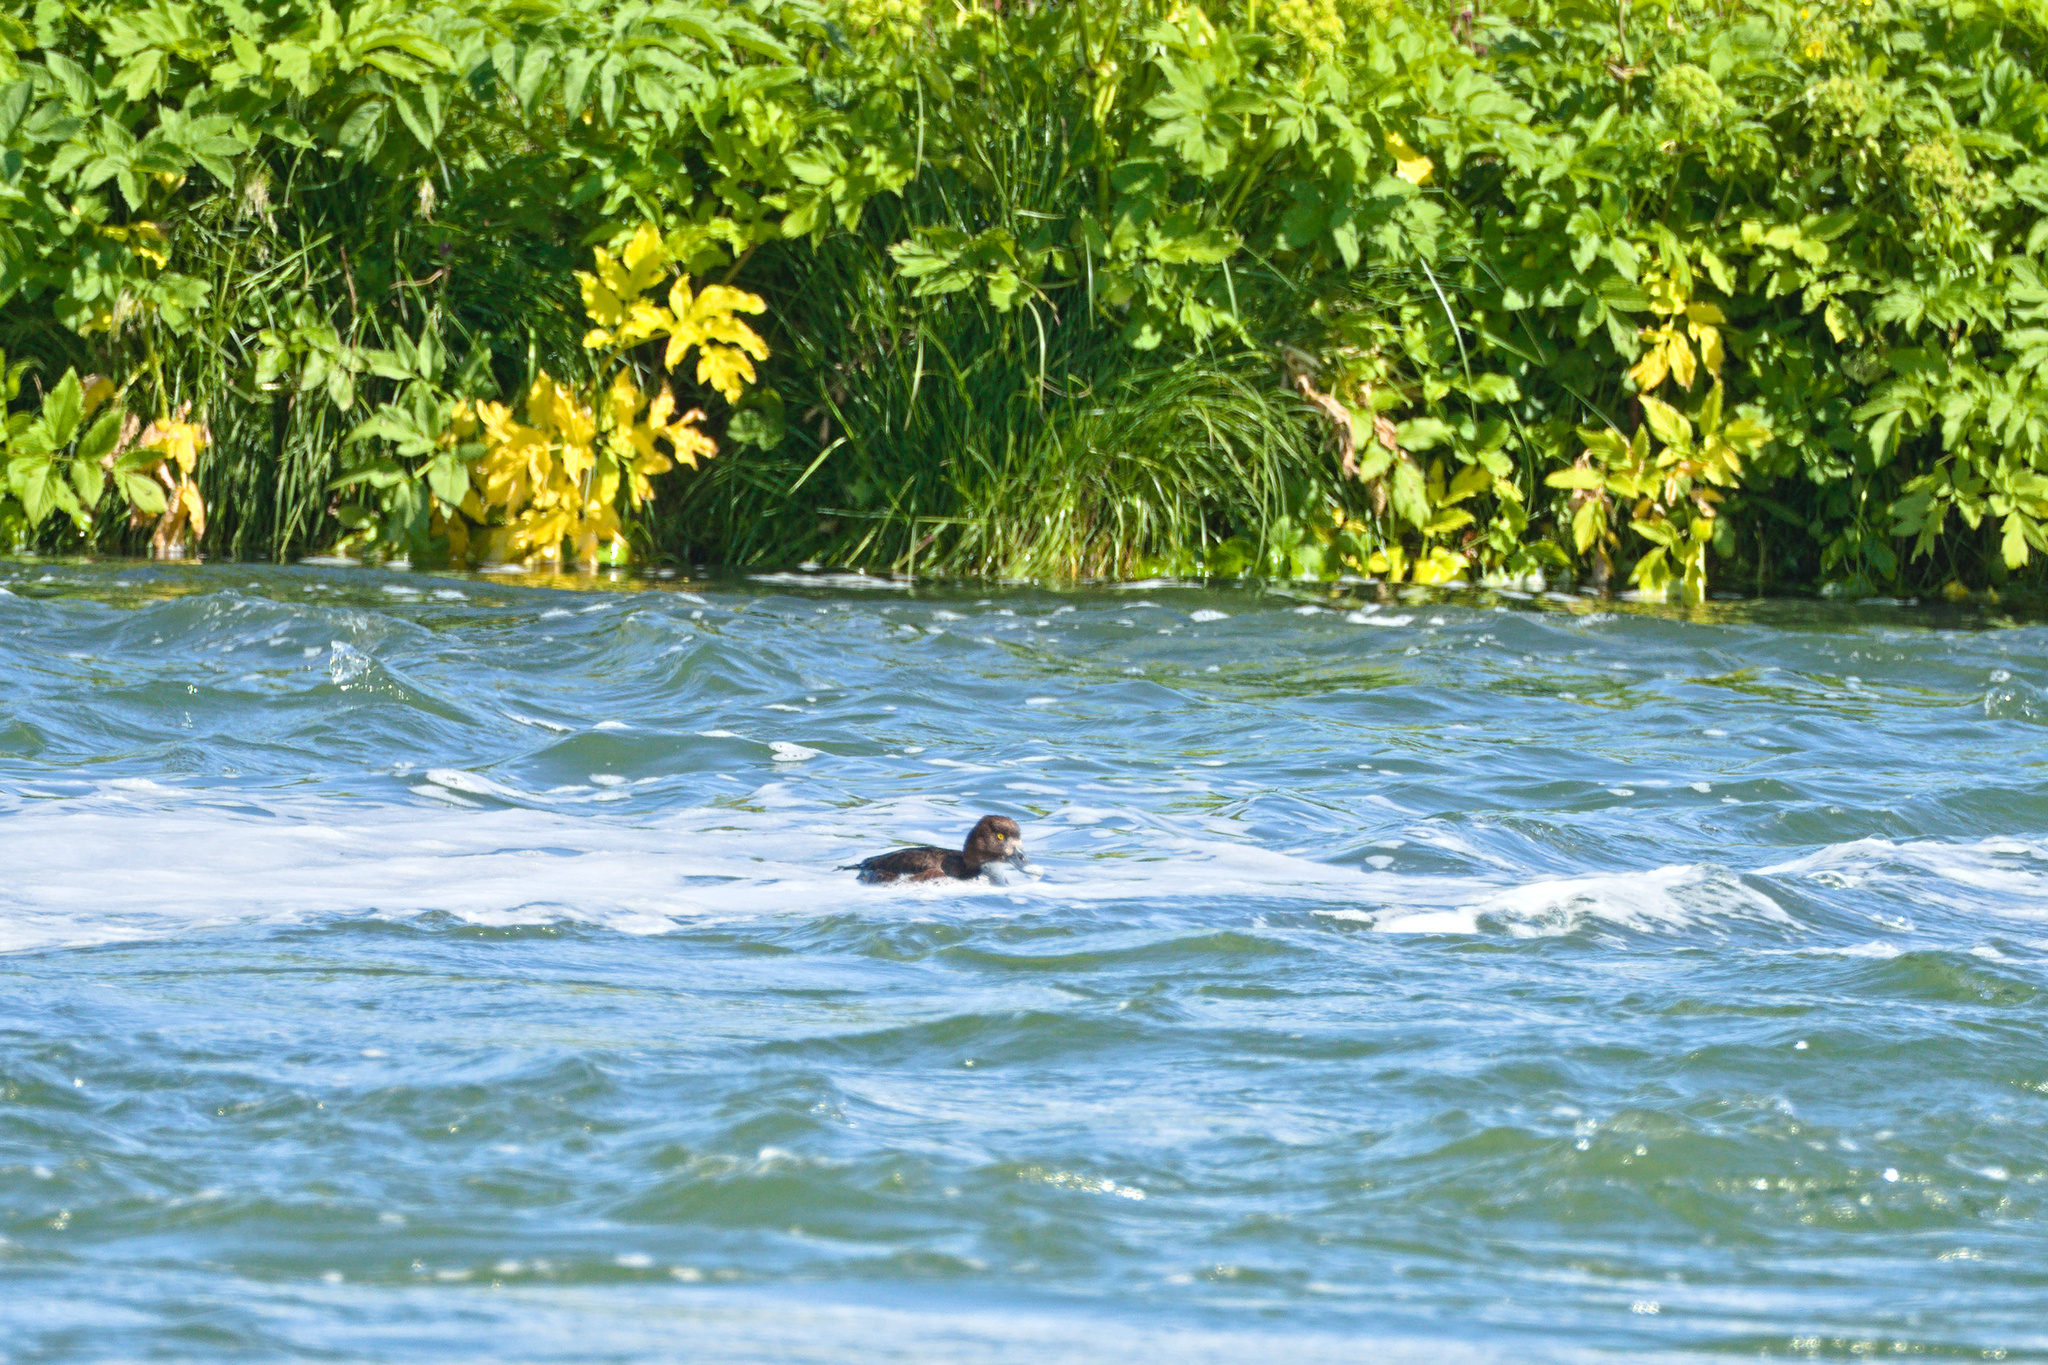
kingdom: Animalia
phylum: Chordata
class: Aves
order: Anseriformes
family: Anatidae
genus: Aythya
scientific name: Aythya fuligula
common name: Tufted duck
